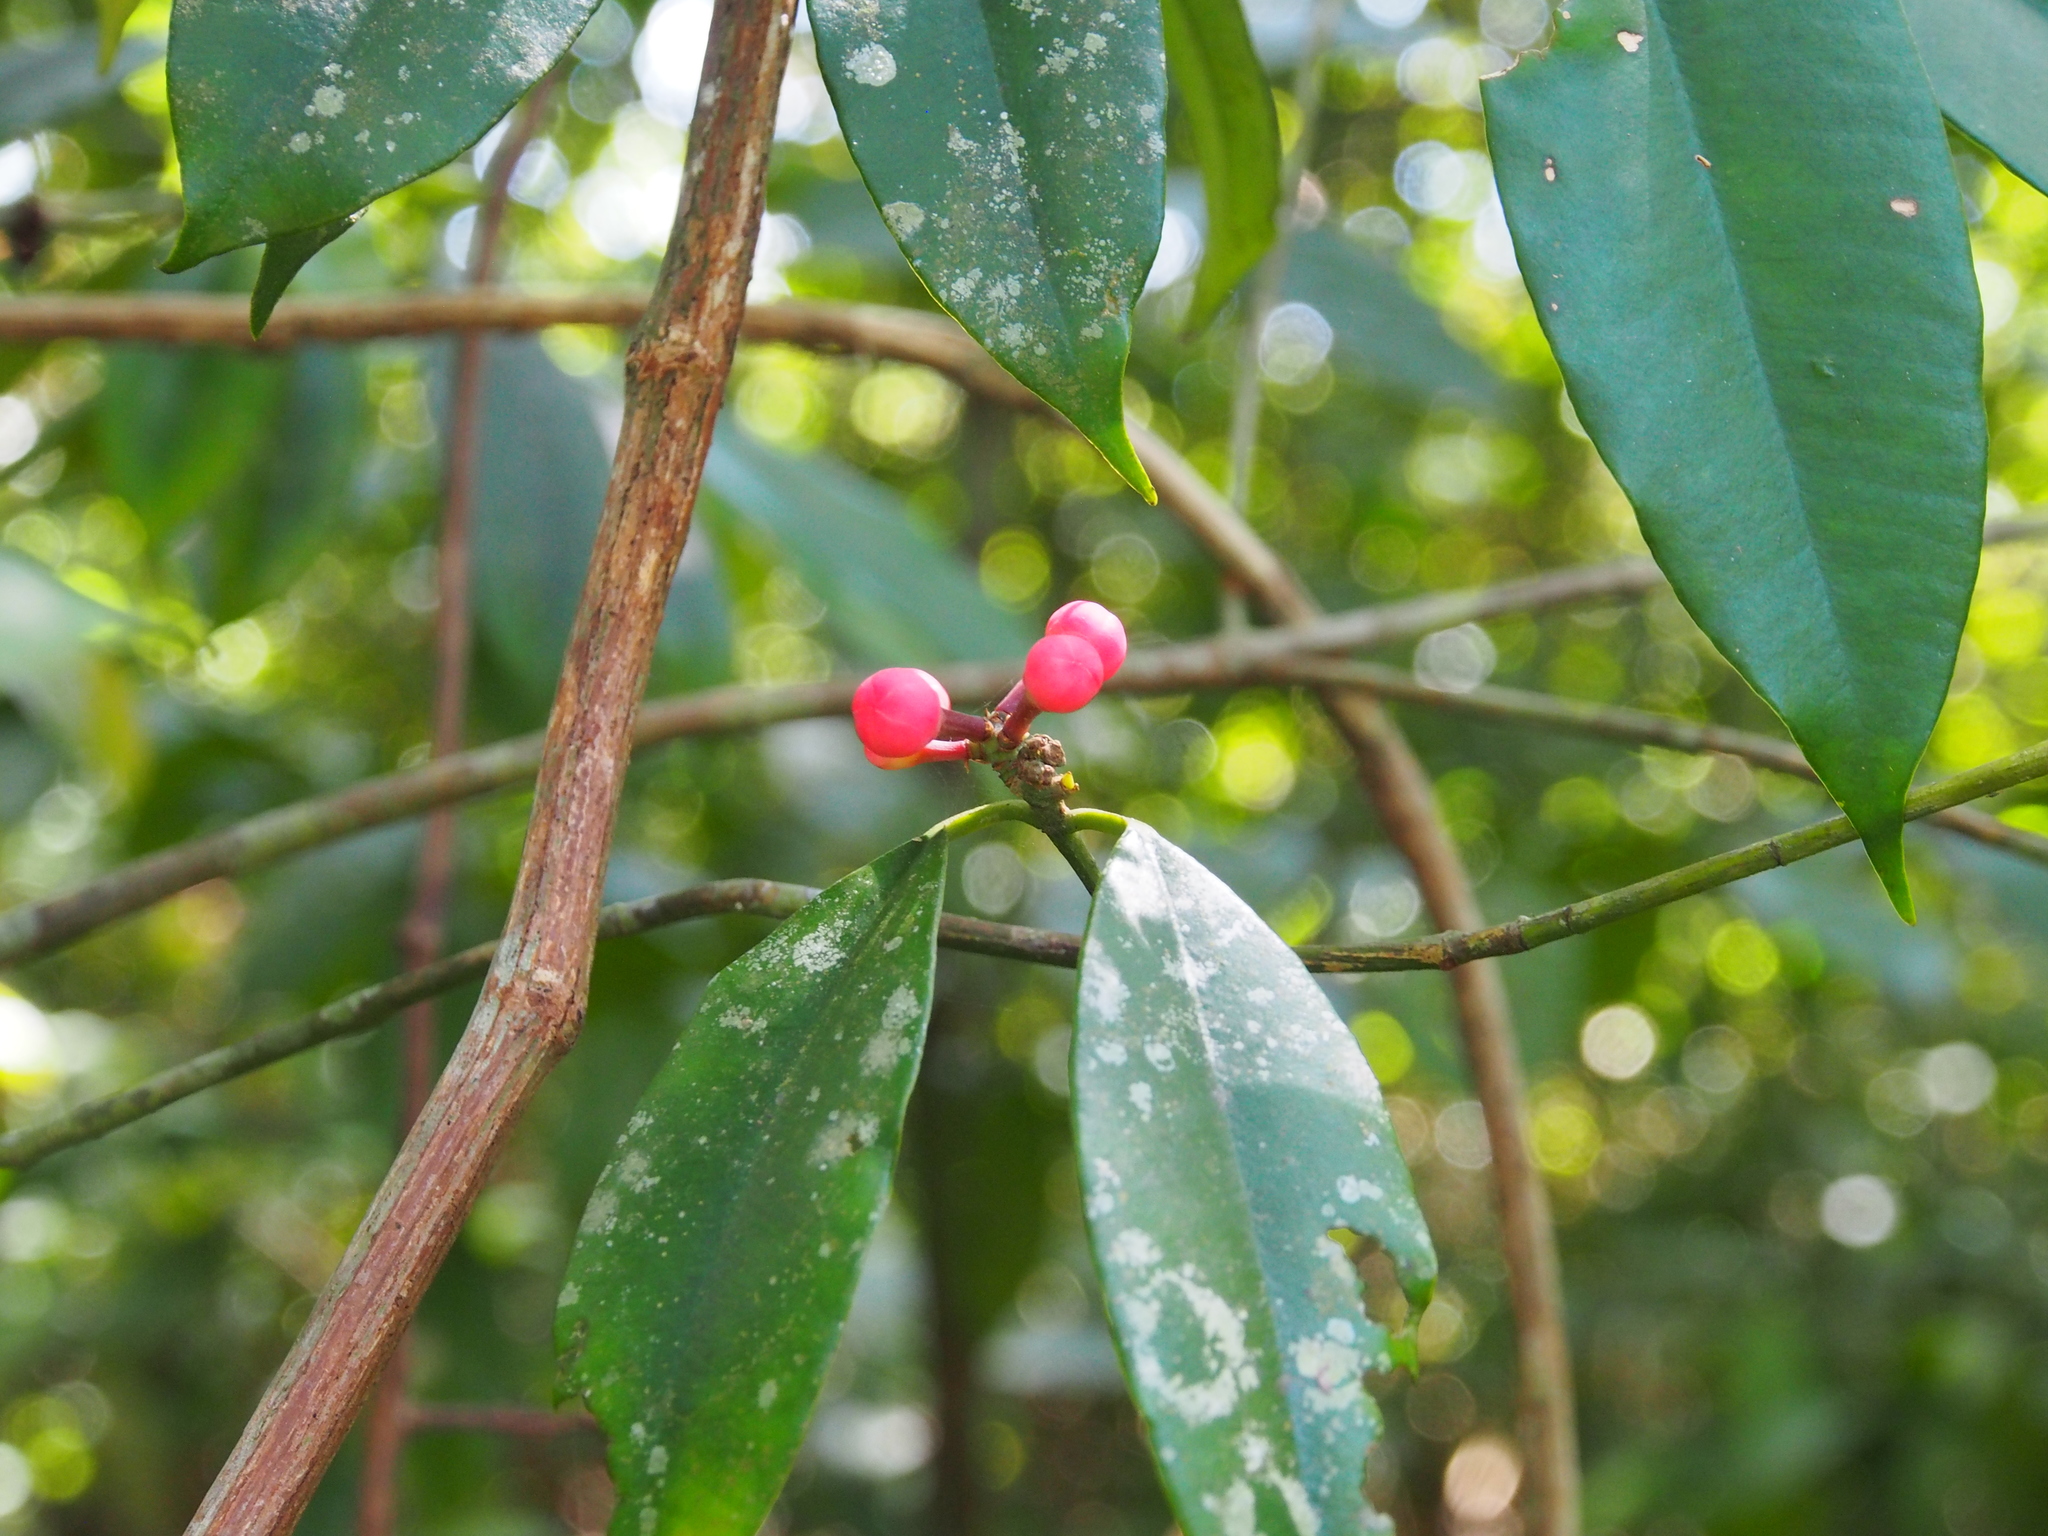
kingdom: Plantae
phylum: Tracheophyta
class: Magnoliopsida
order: Malpighiales
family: Clusiaceae
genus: Symphonia
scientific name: Symphonia globulifera
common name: Boarwood
